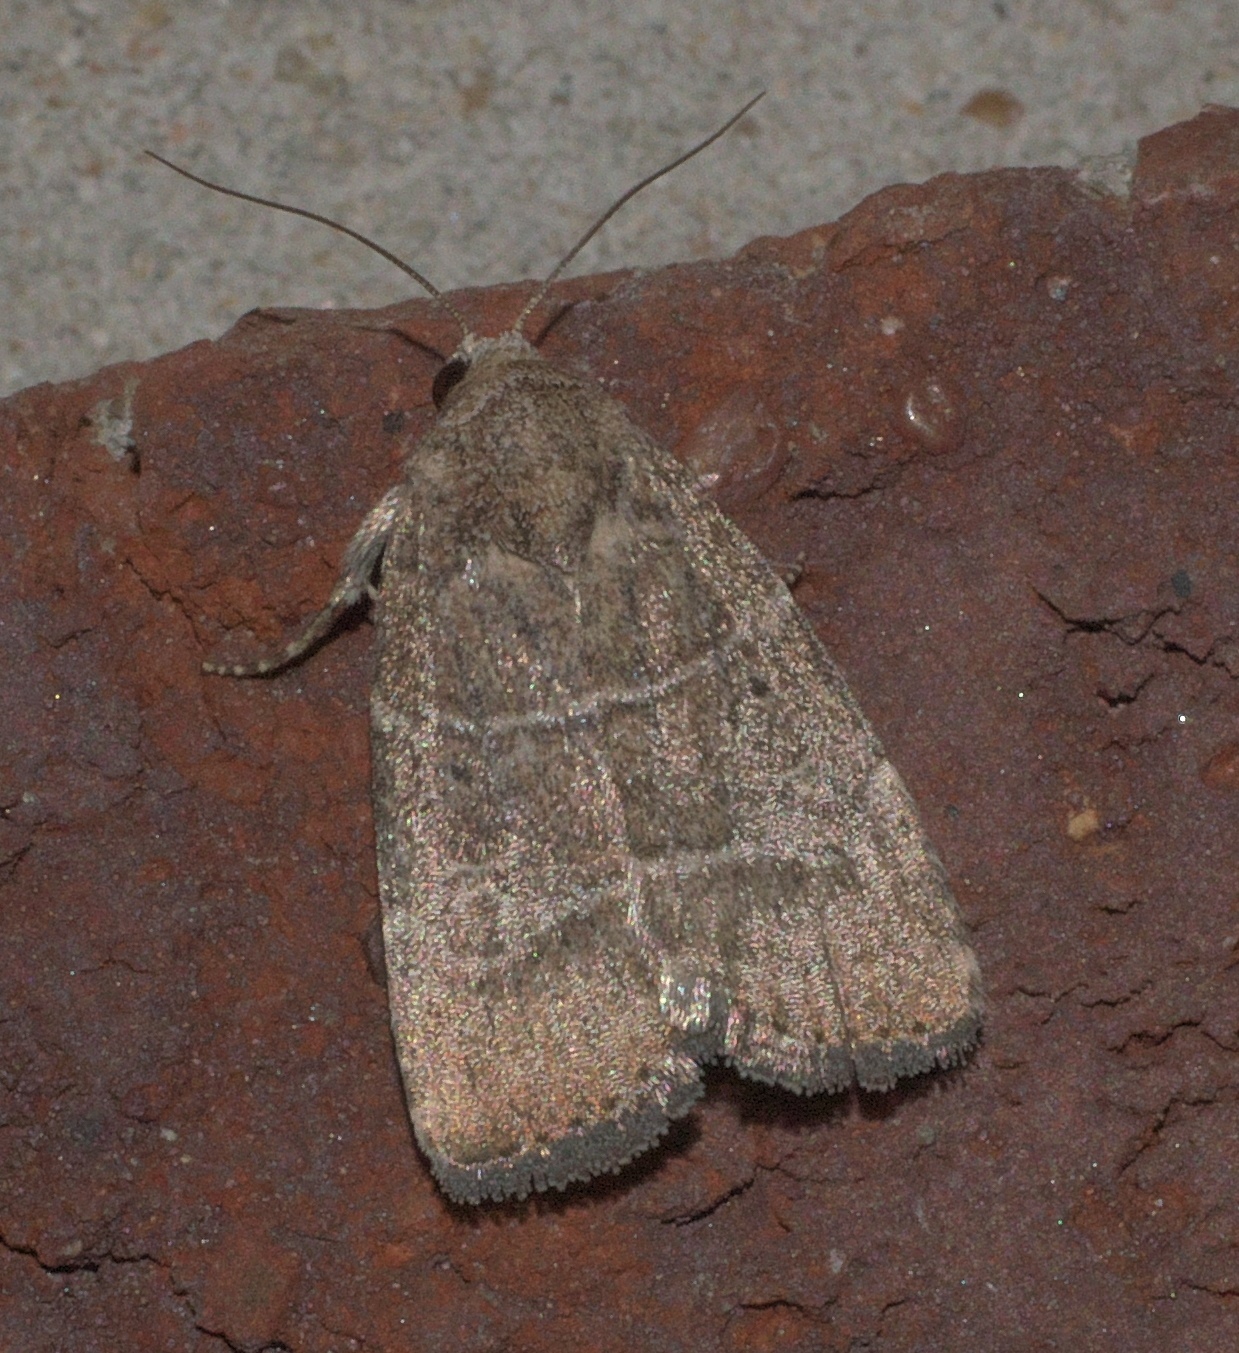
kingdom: Animalia
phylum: Arthropoda
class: Insecta
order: Lepidoptera
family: Noctuidae
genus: Elaphria
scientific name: Elaphria grata
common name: Grateful midget moth
